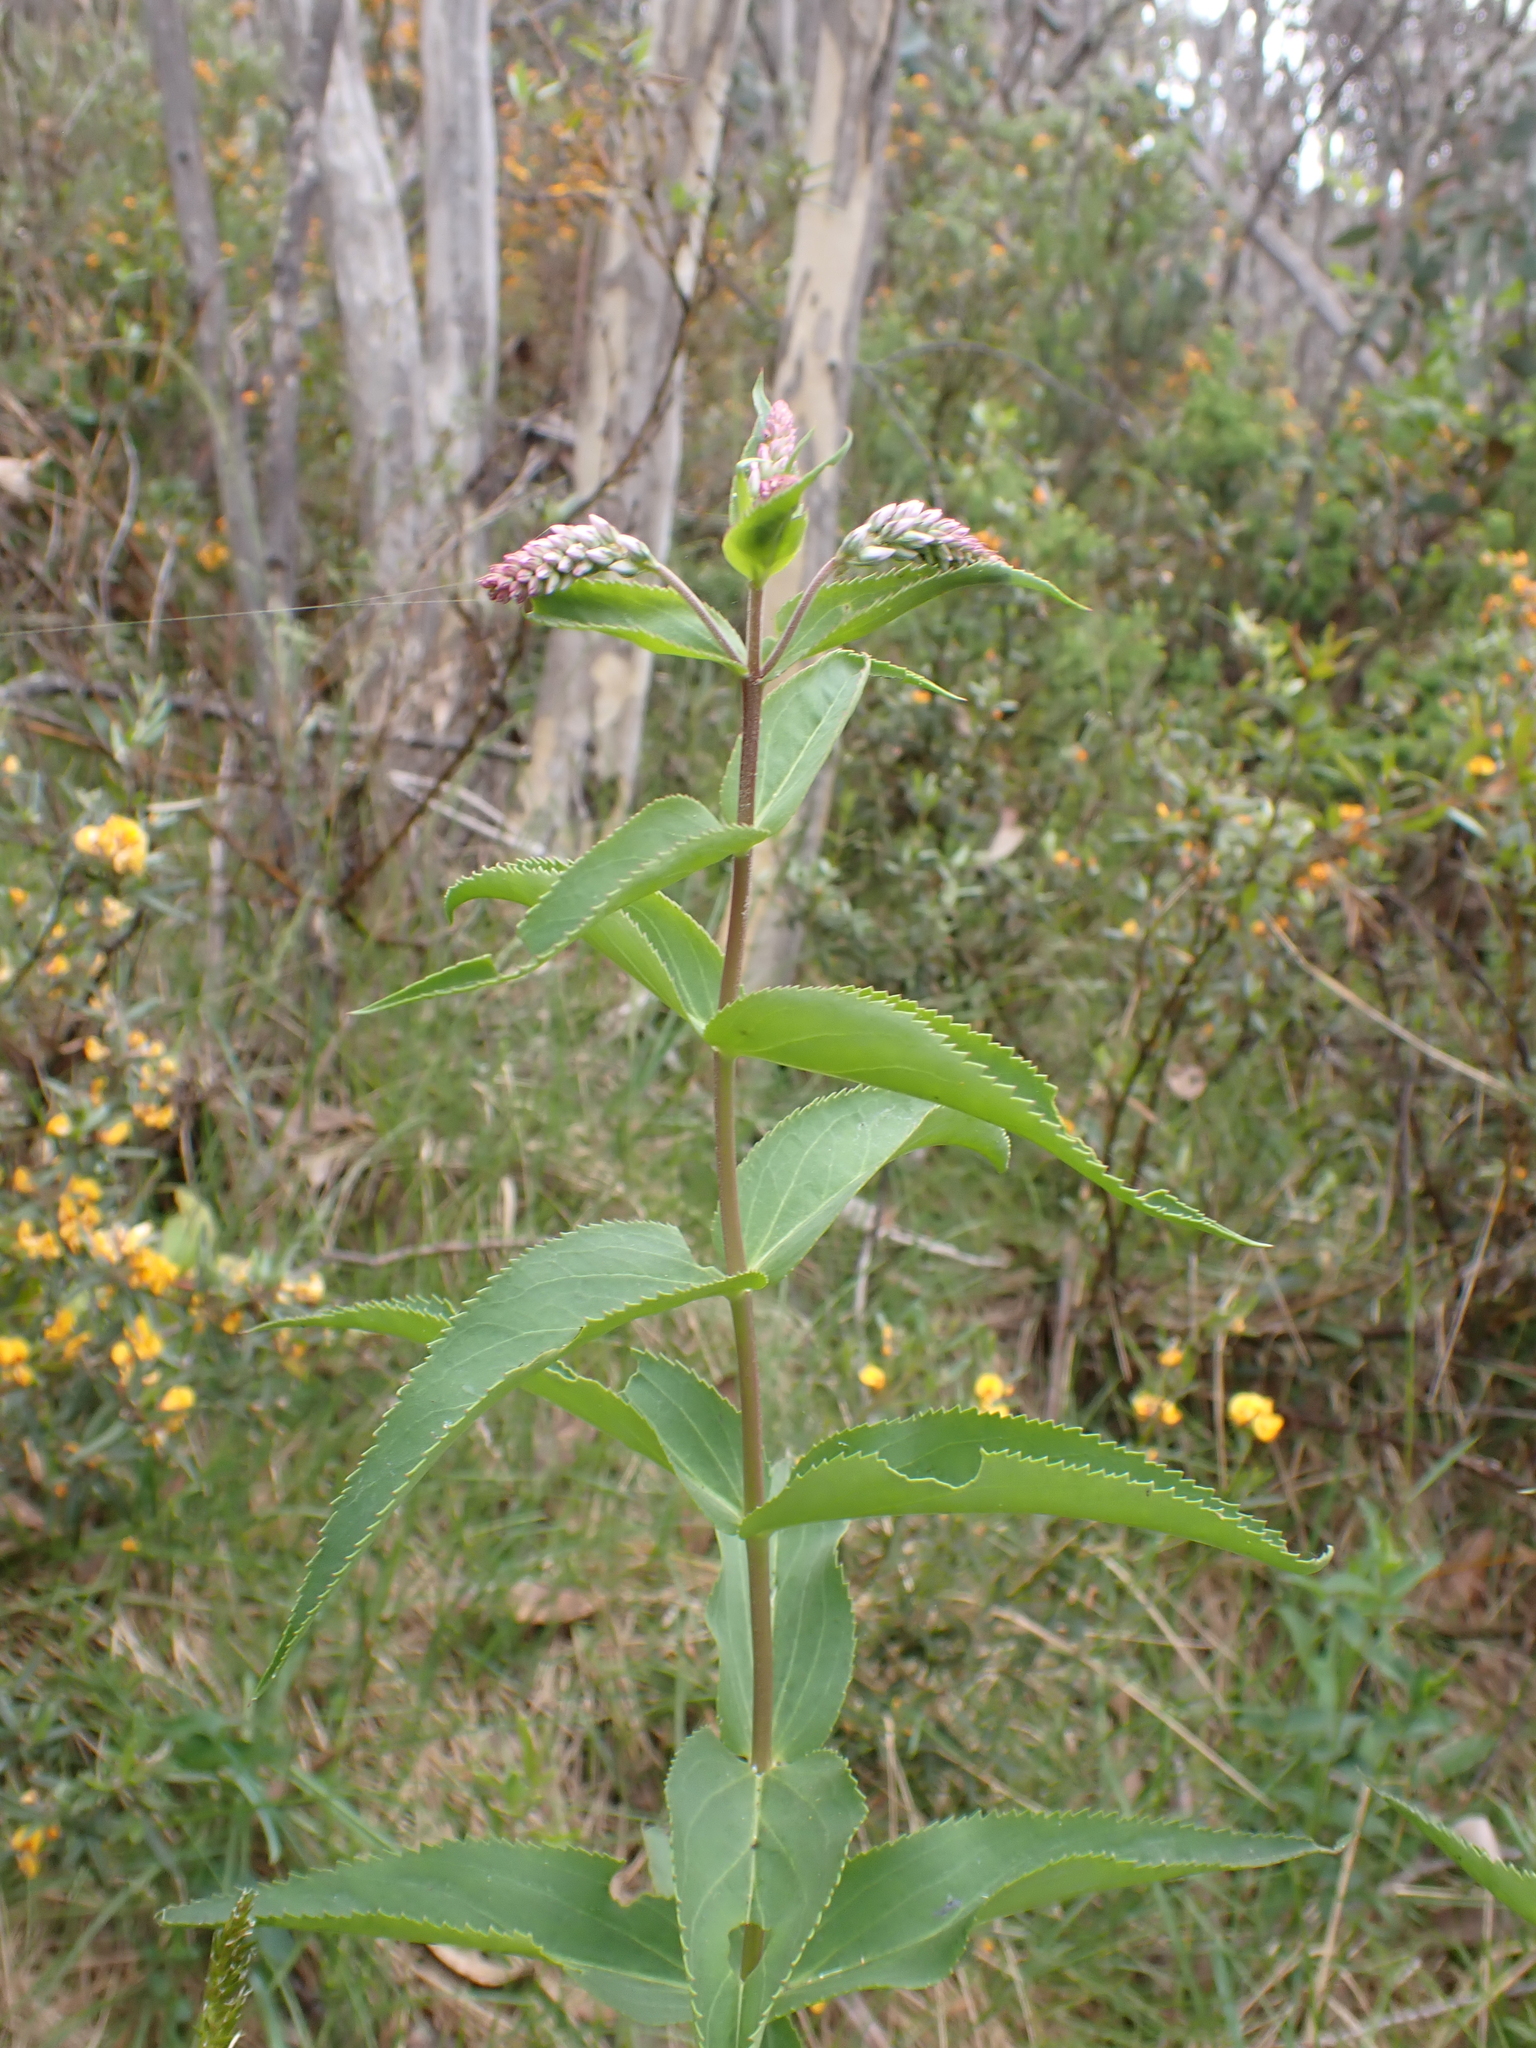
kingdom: Plantae
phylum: Tracheophyta
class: Magnoliopsida
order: Lamiales
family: Plantaginaceae
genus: Veronica
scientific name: Veronica derwentiana
